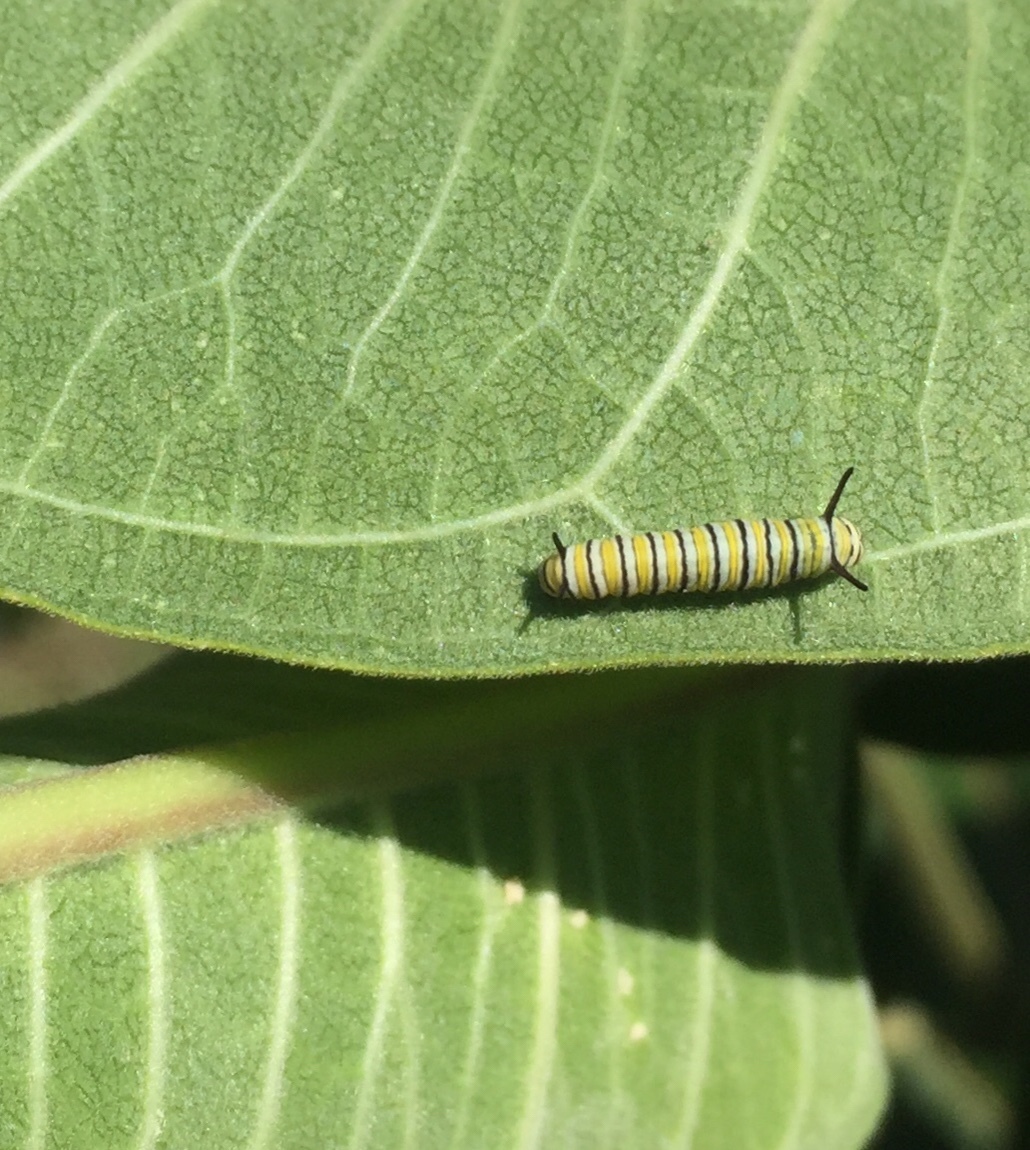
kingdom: Animalia
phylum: Arthropoda
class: Insecta
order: Lepidoptera
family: Nymphalidae
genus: Danaus
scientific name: Danaus plexippus
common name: Monarch
